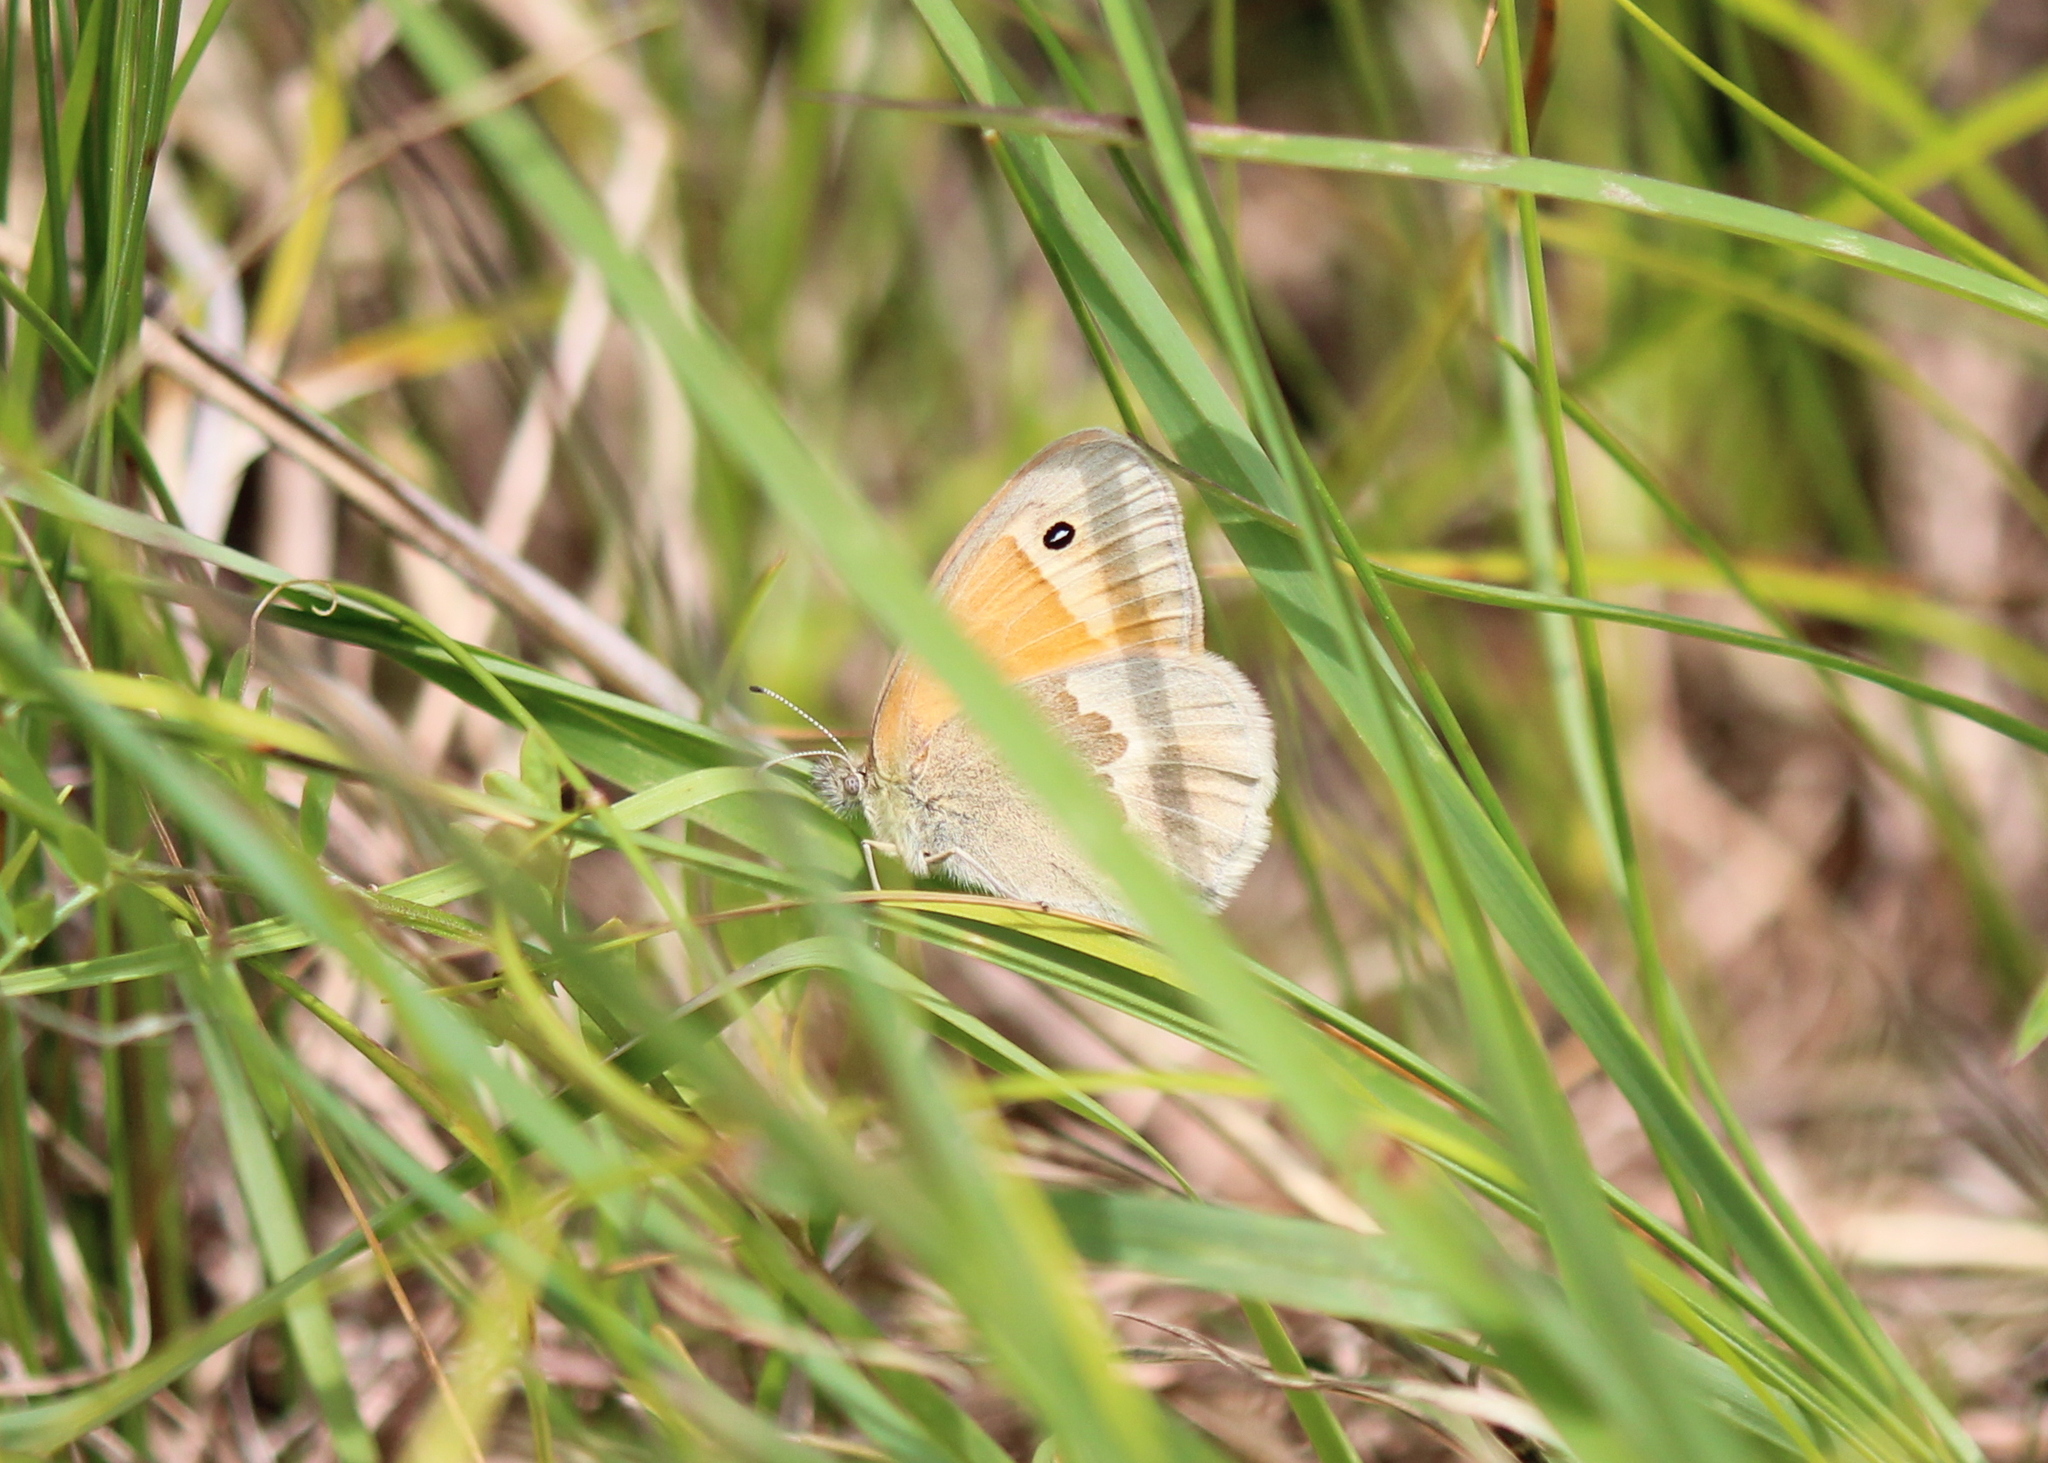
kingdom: Animalia
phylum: Arthropoda
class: Insecta
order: Lepidoptera
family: Nymphalidae
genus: Coenonympha
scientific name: Coenonympha california
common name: Common ringlet
